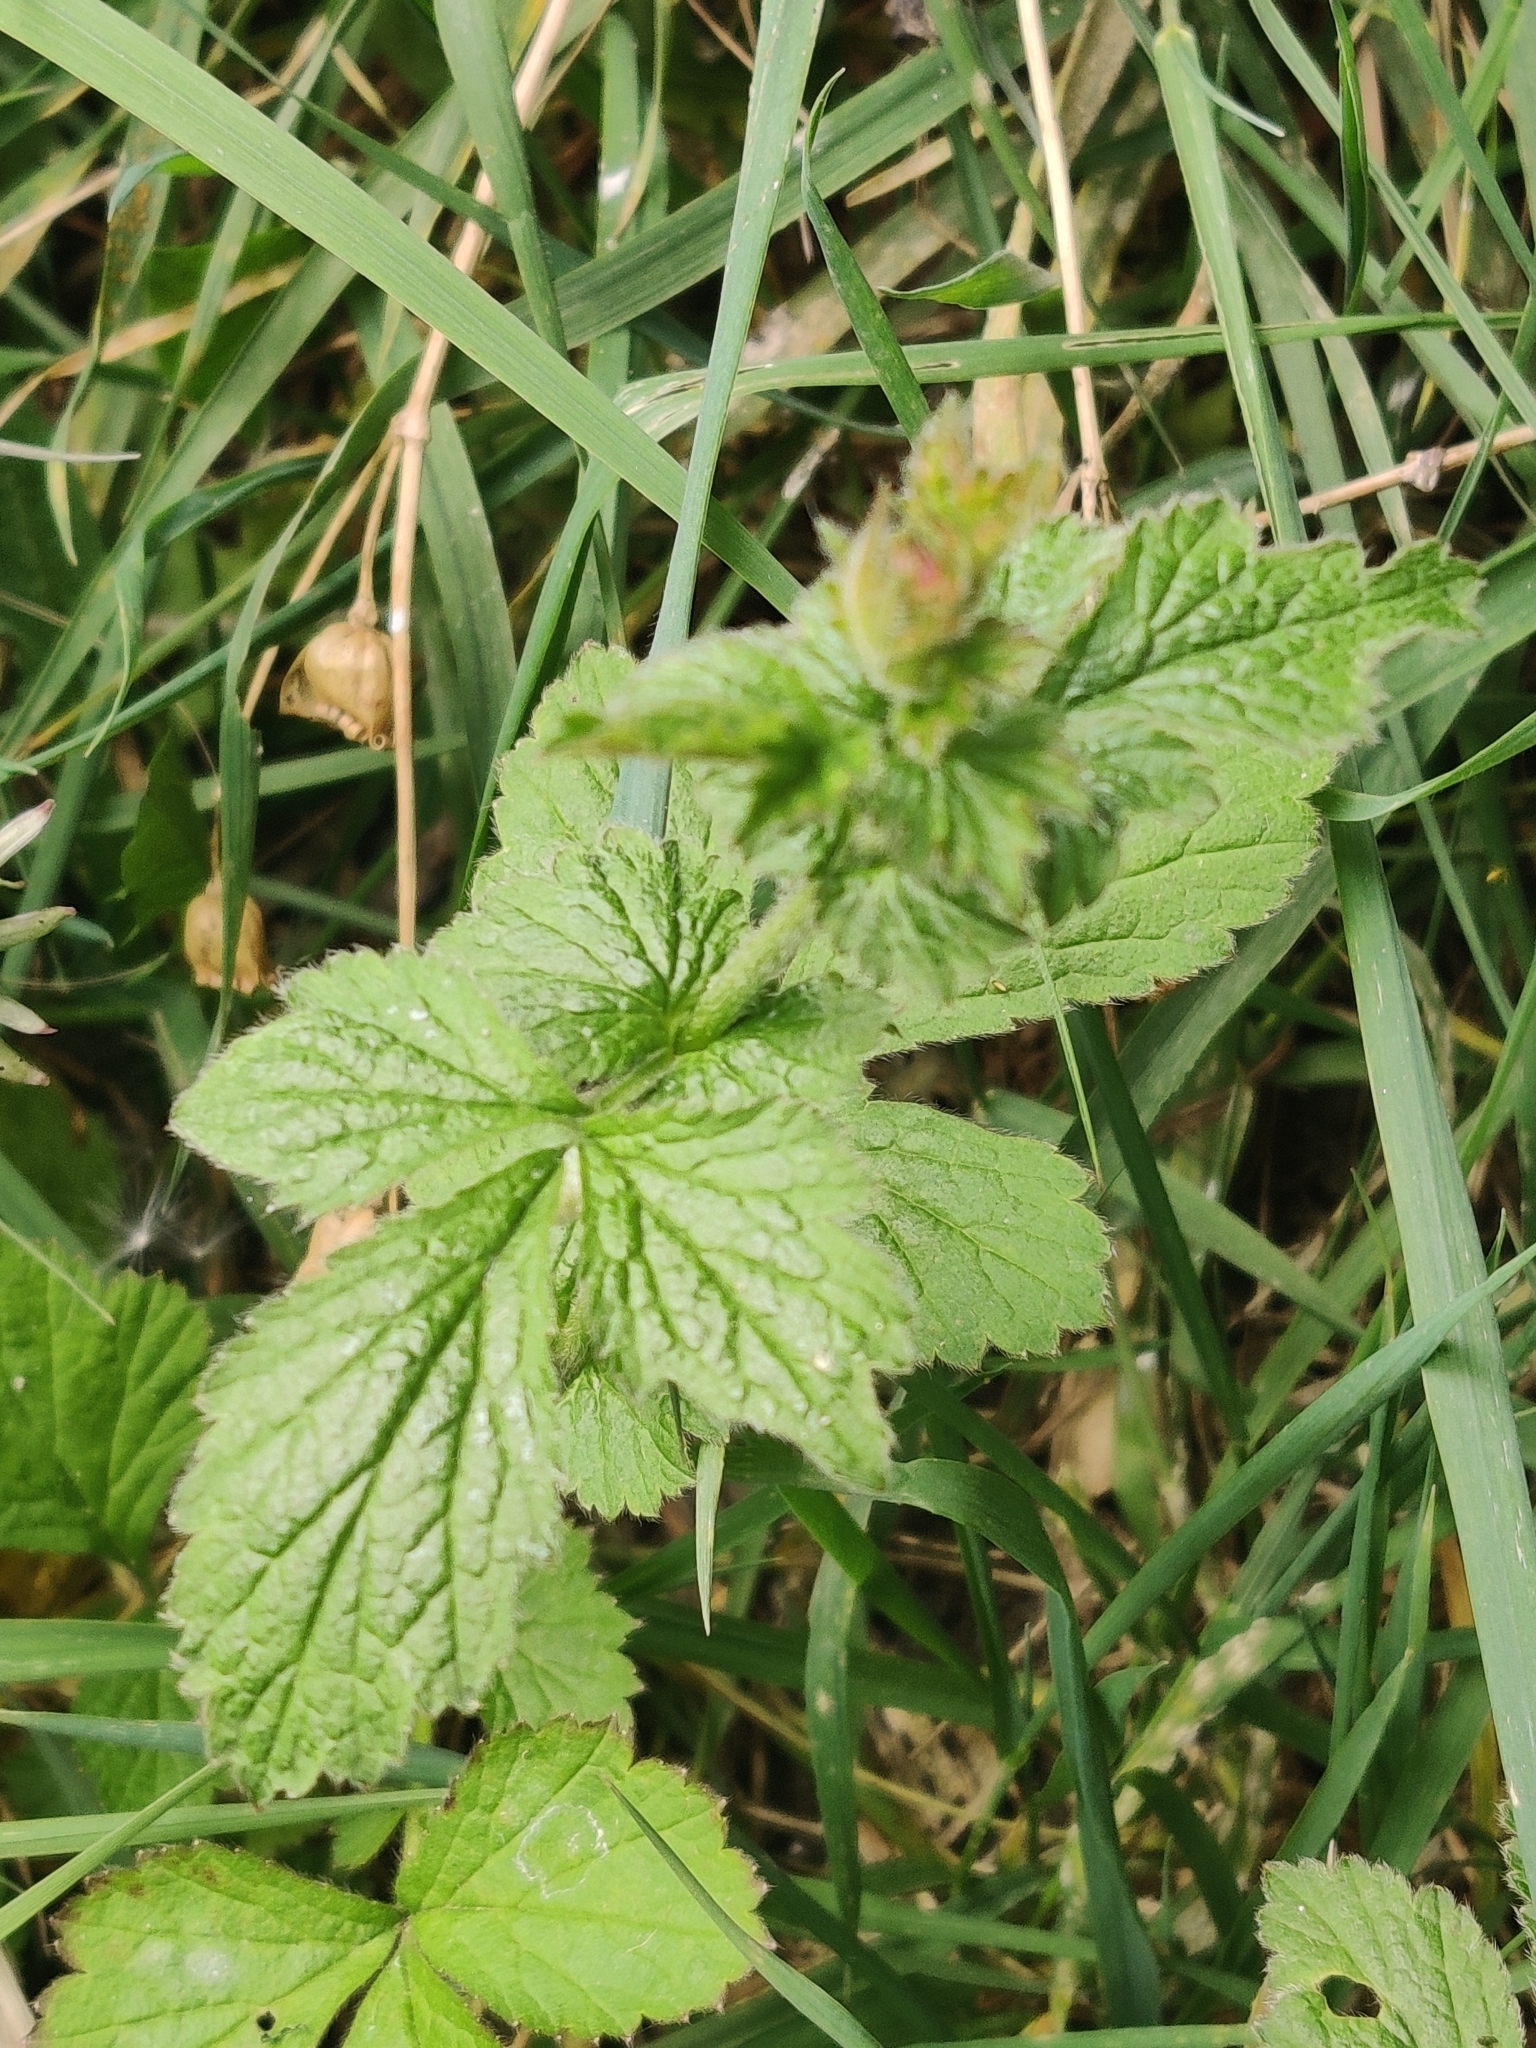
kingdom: Plantae
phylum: Tracheophyta
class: Magnoliopsida
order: Rosales
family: Rosaceae
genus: Geum
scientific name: Geum urbanum
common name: Wood avens
